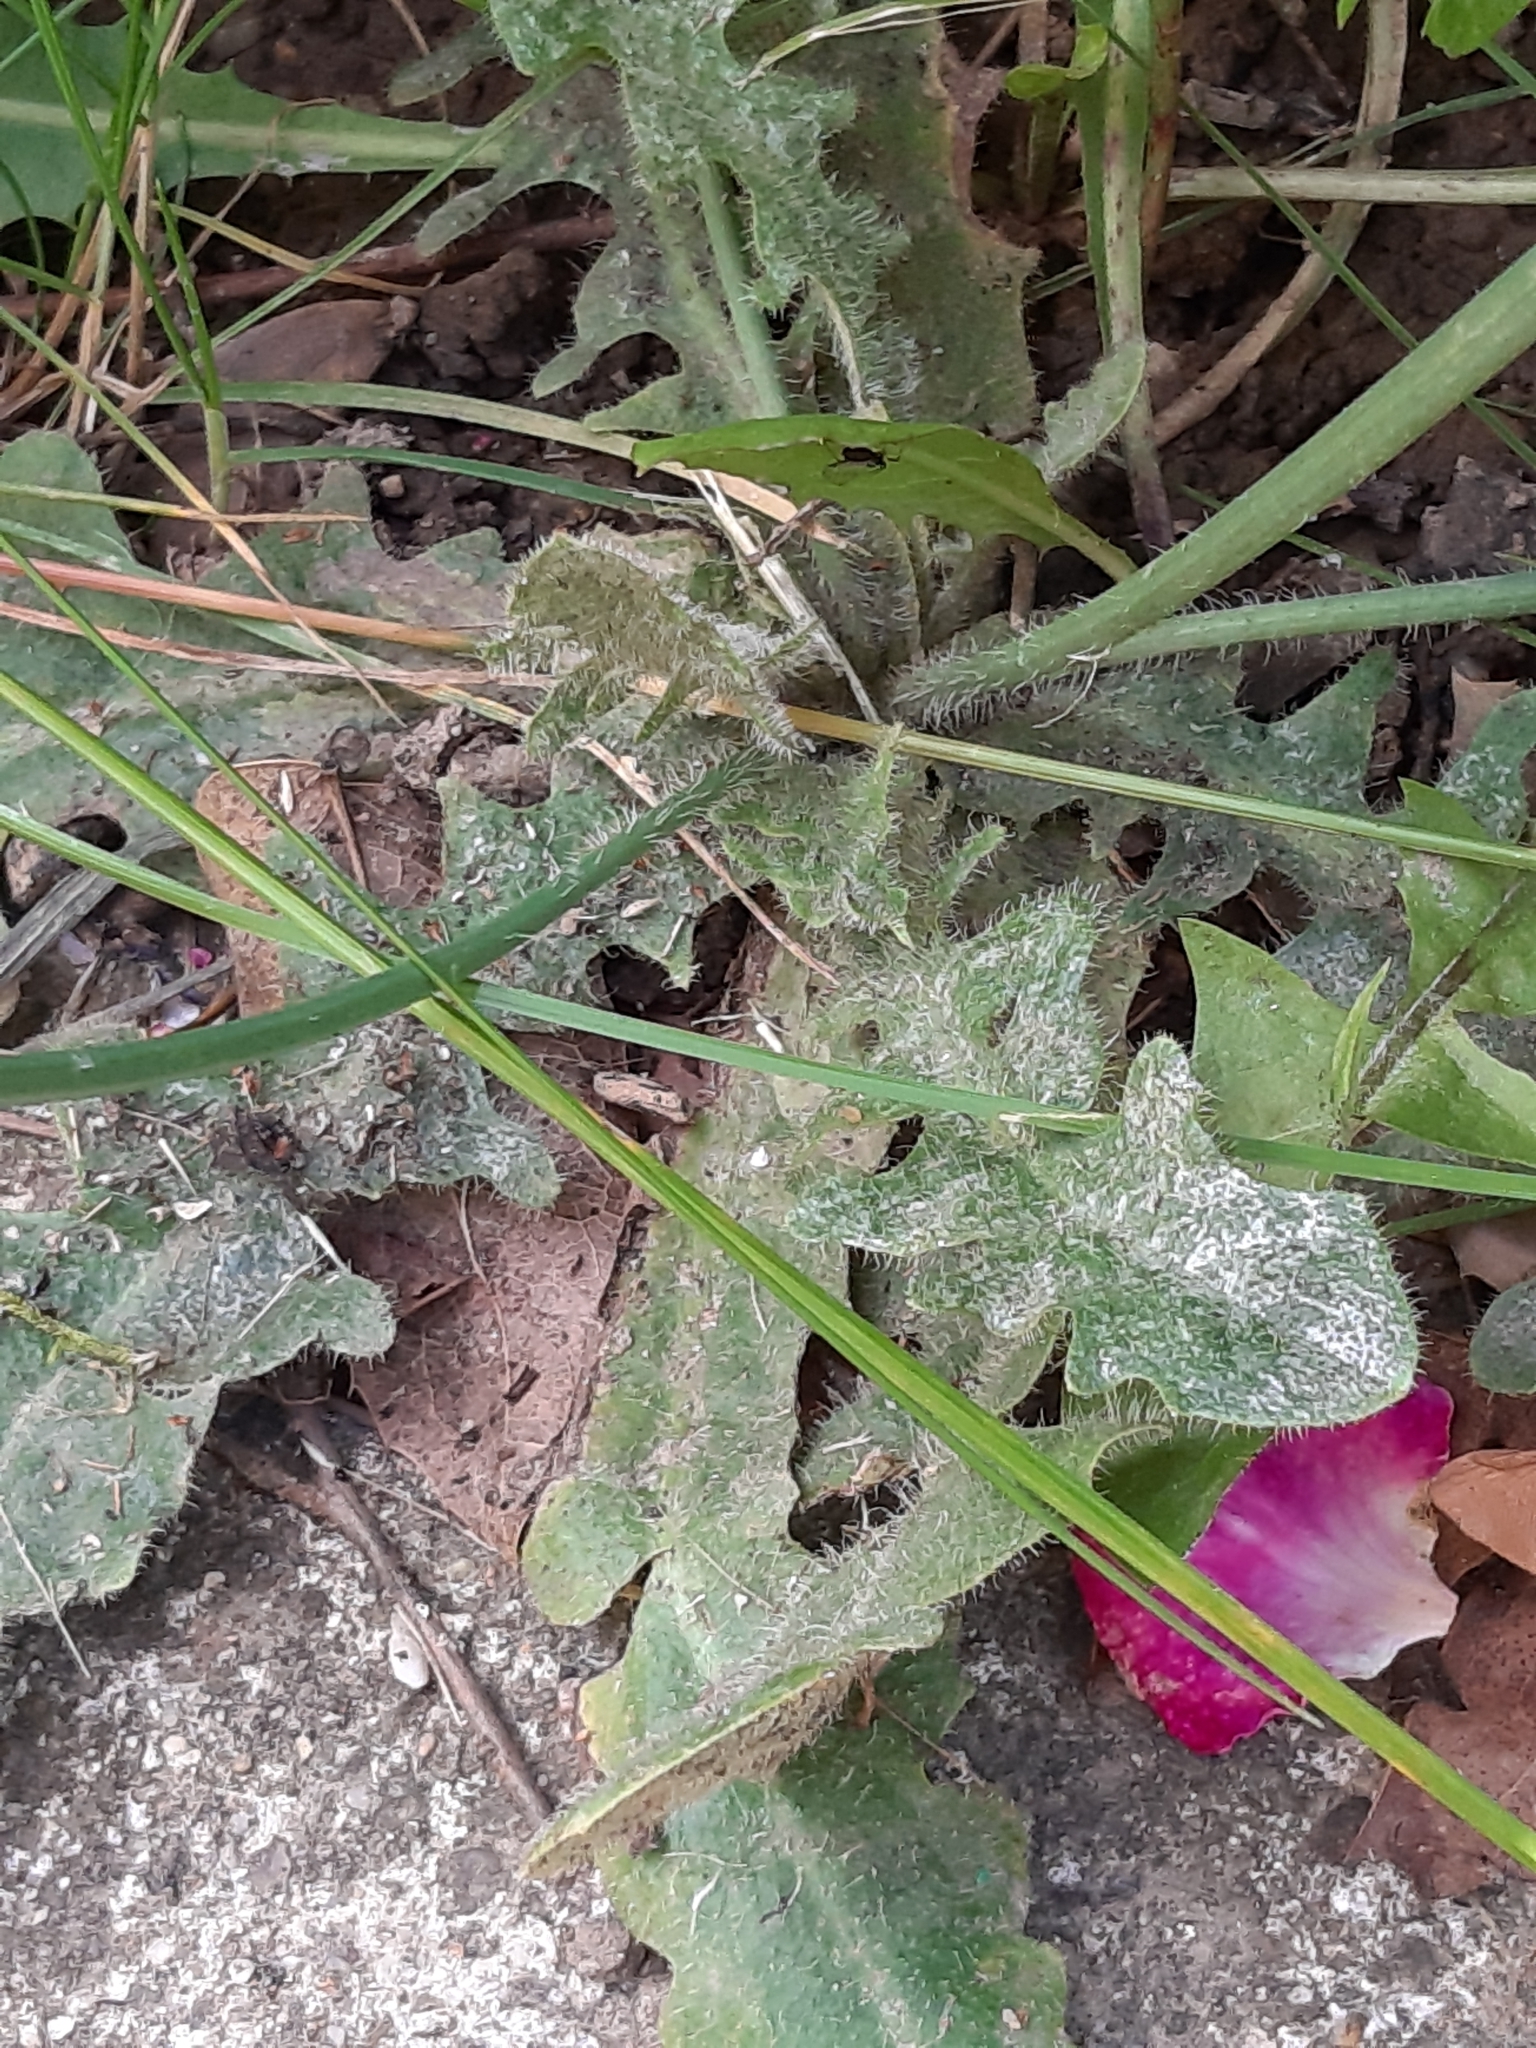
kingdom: Plantae
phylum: Tracheophyta
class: Magnoliopsida
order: Asterales
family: Asteraceae
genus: Hypochaeris
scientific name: Hypochaeris radicata
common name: Flatweed
